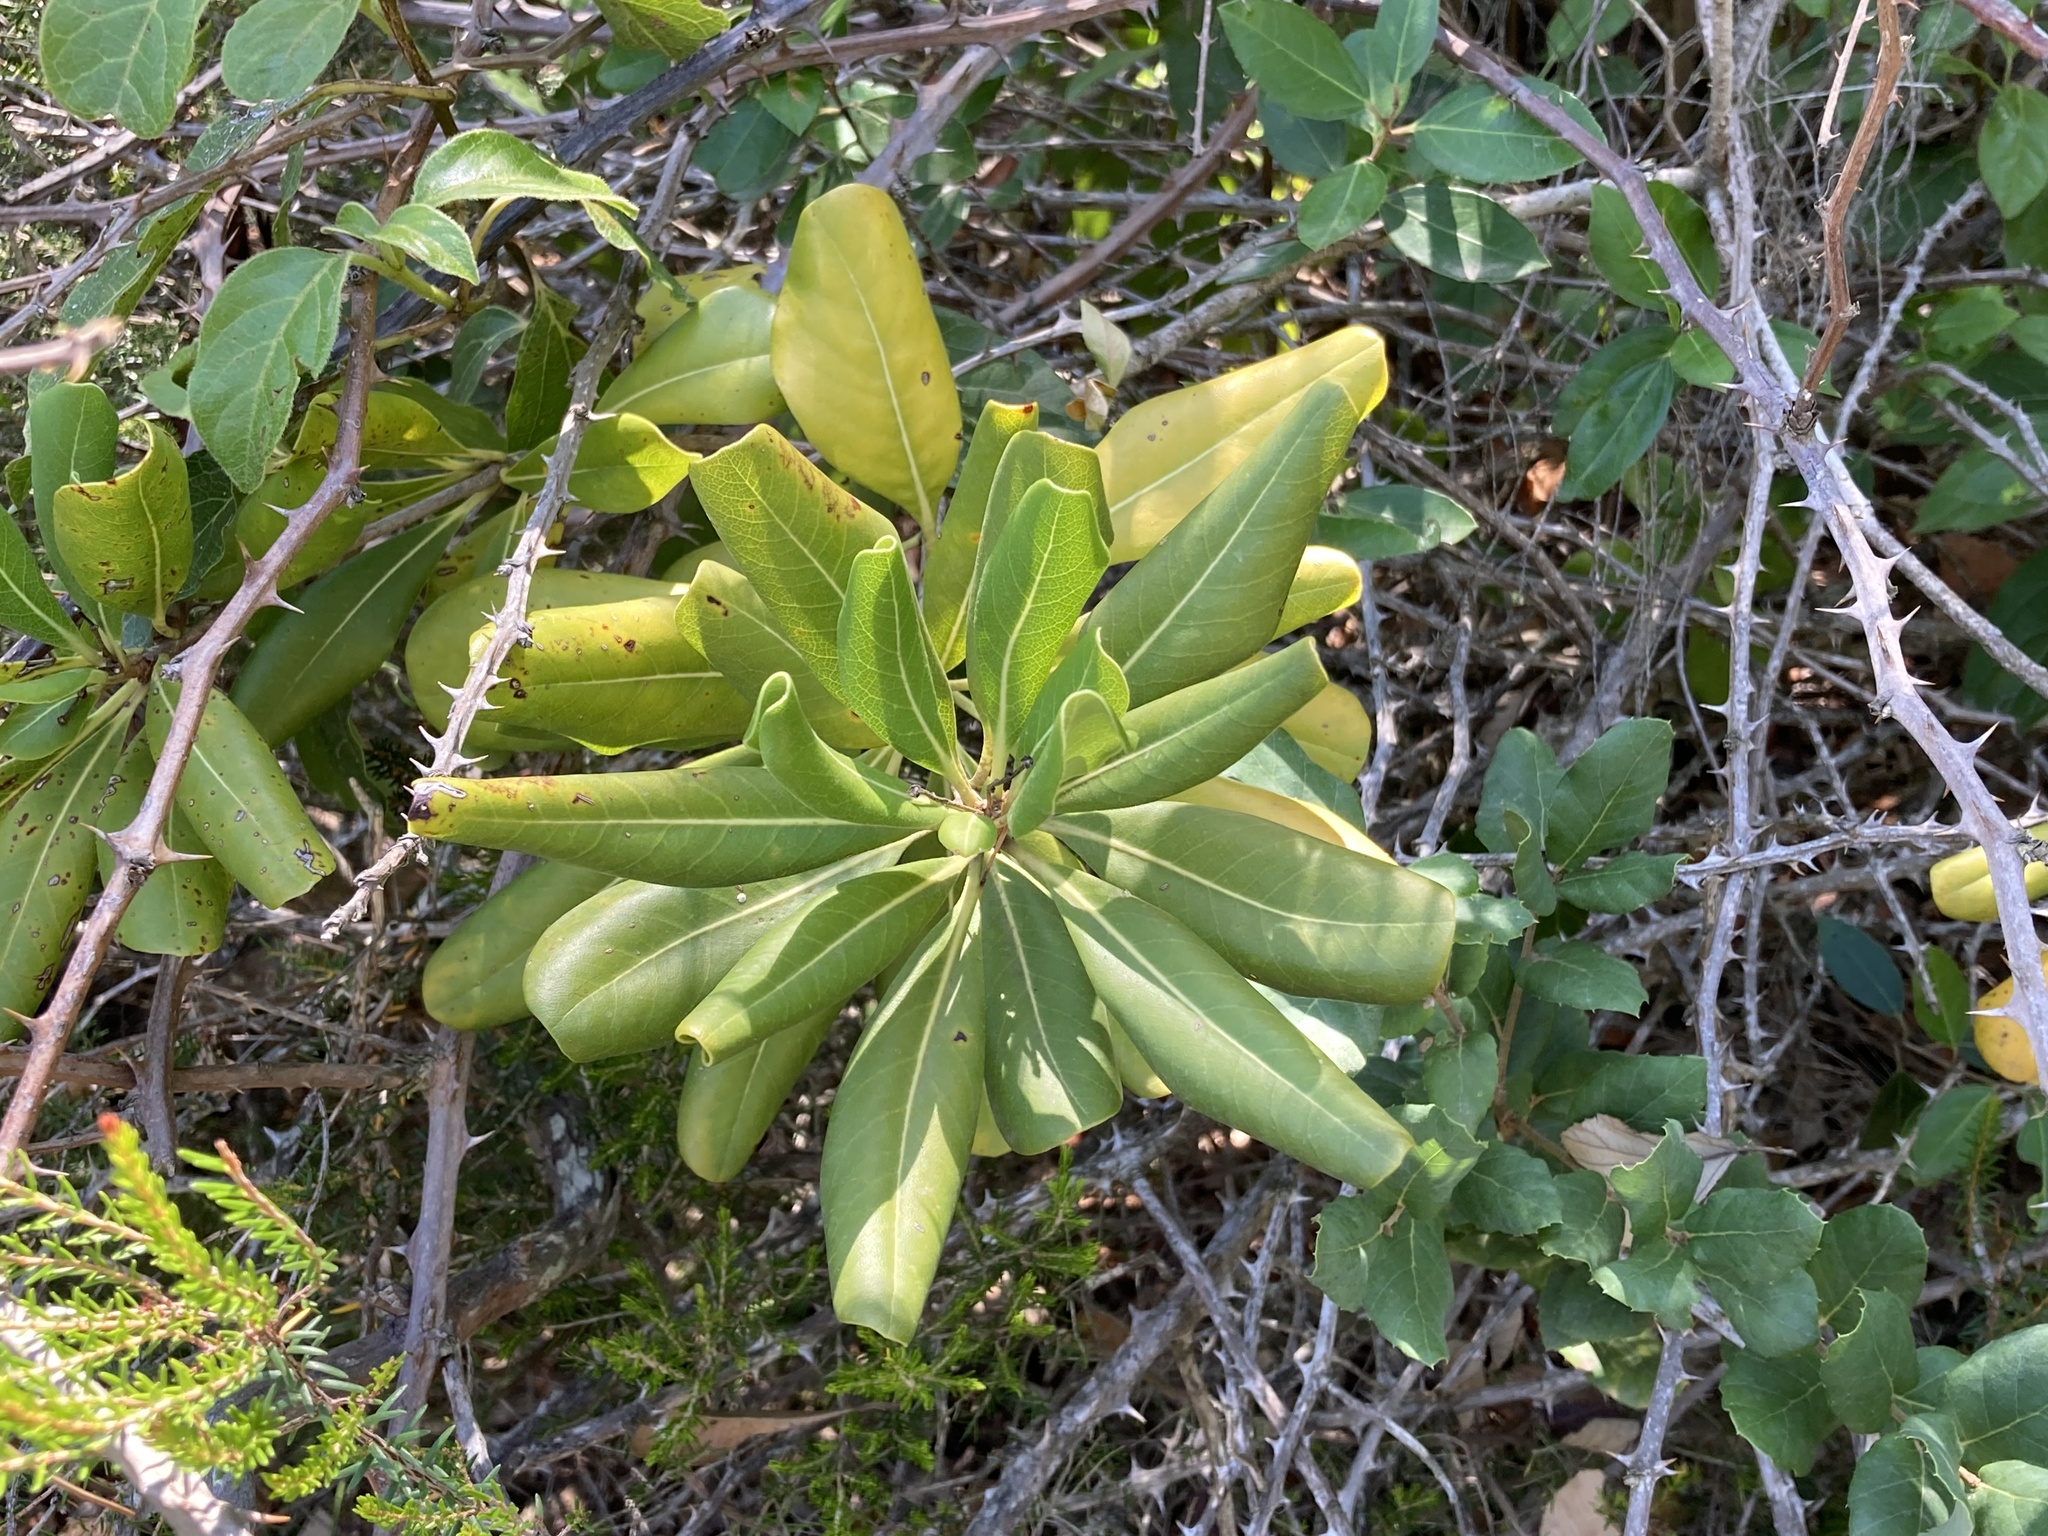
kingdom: Plantae
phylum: Tracheophyta
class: Magnoliopsida
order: Apiales
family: Pittosporaceae
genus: Pittosporum
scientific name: Pittosporum tobira
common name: Japanese cheesewood
